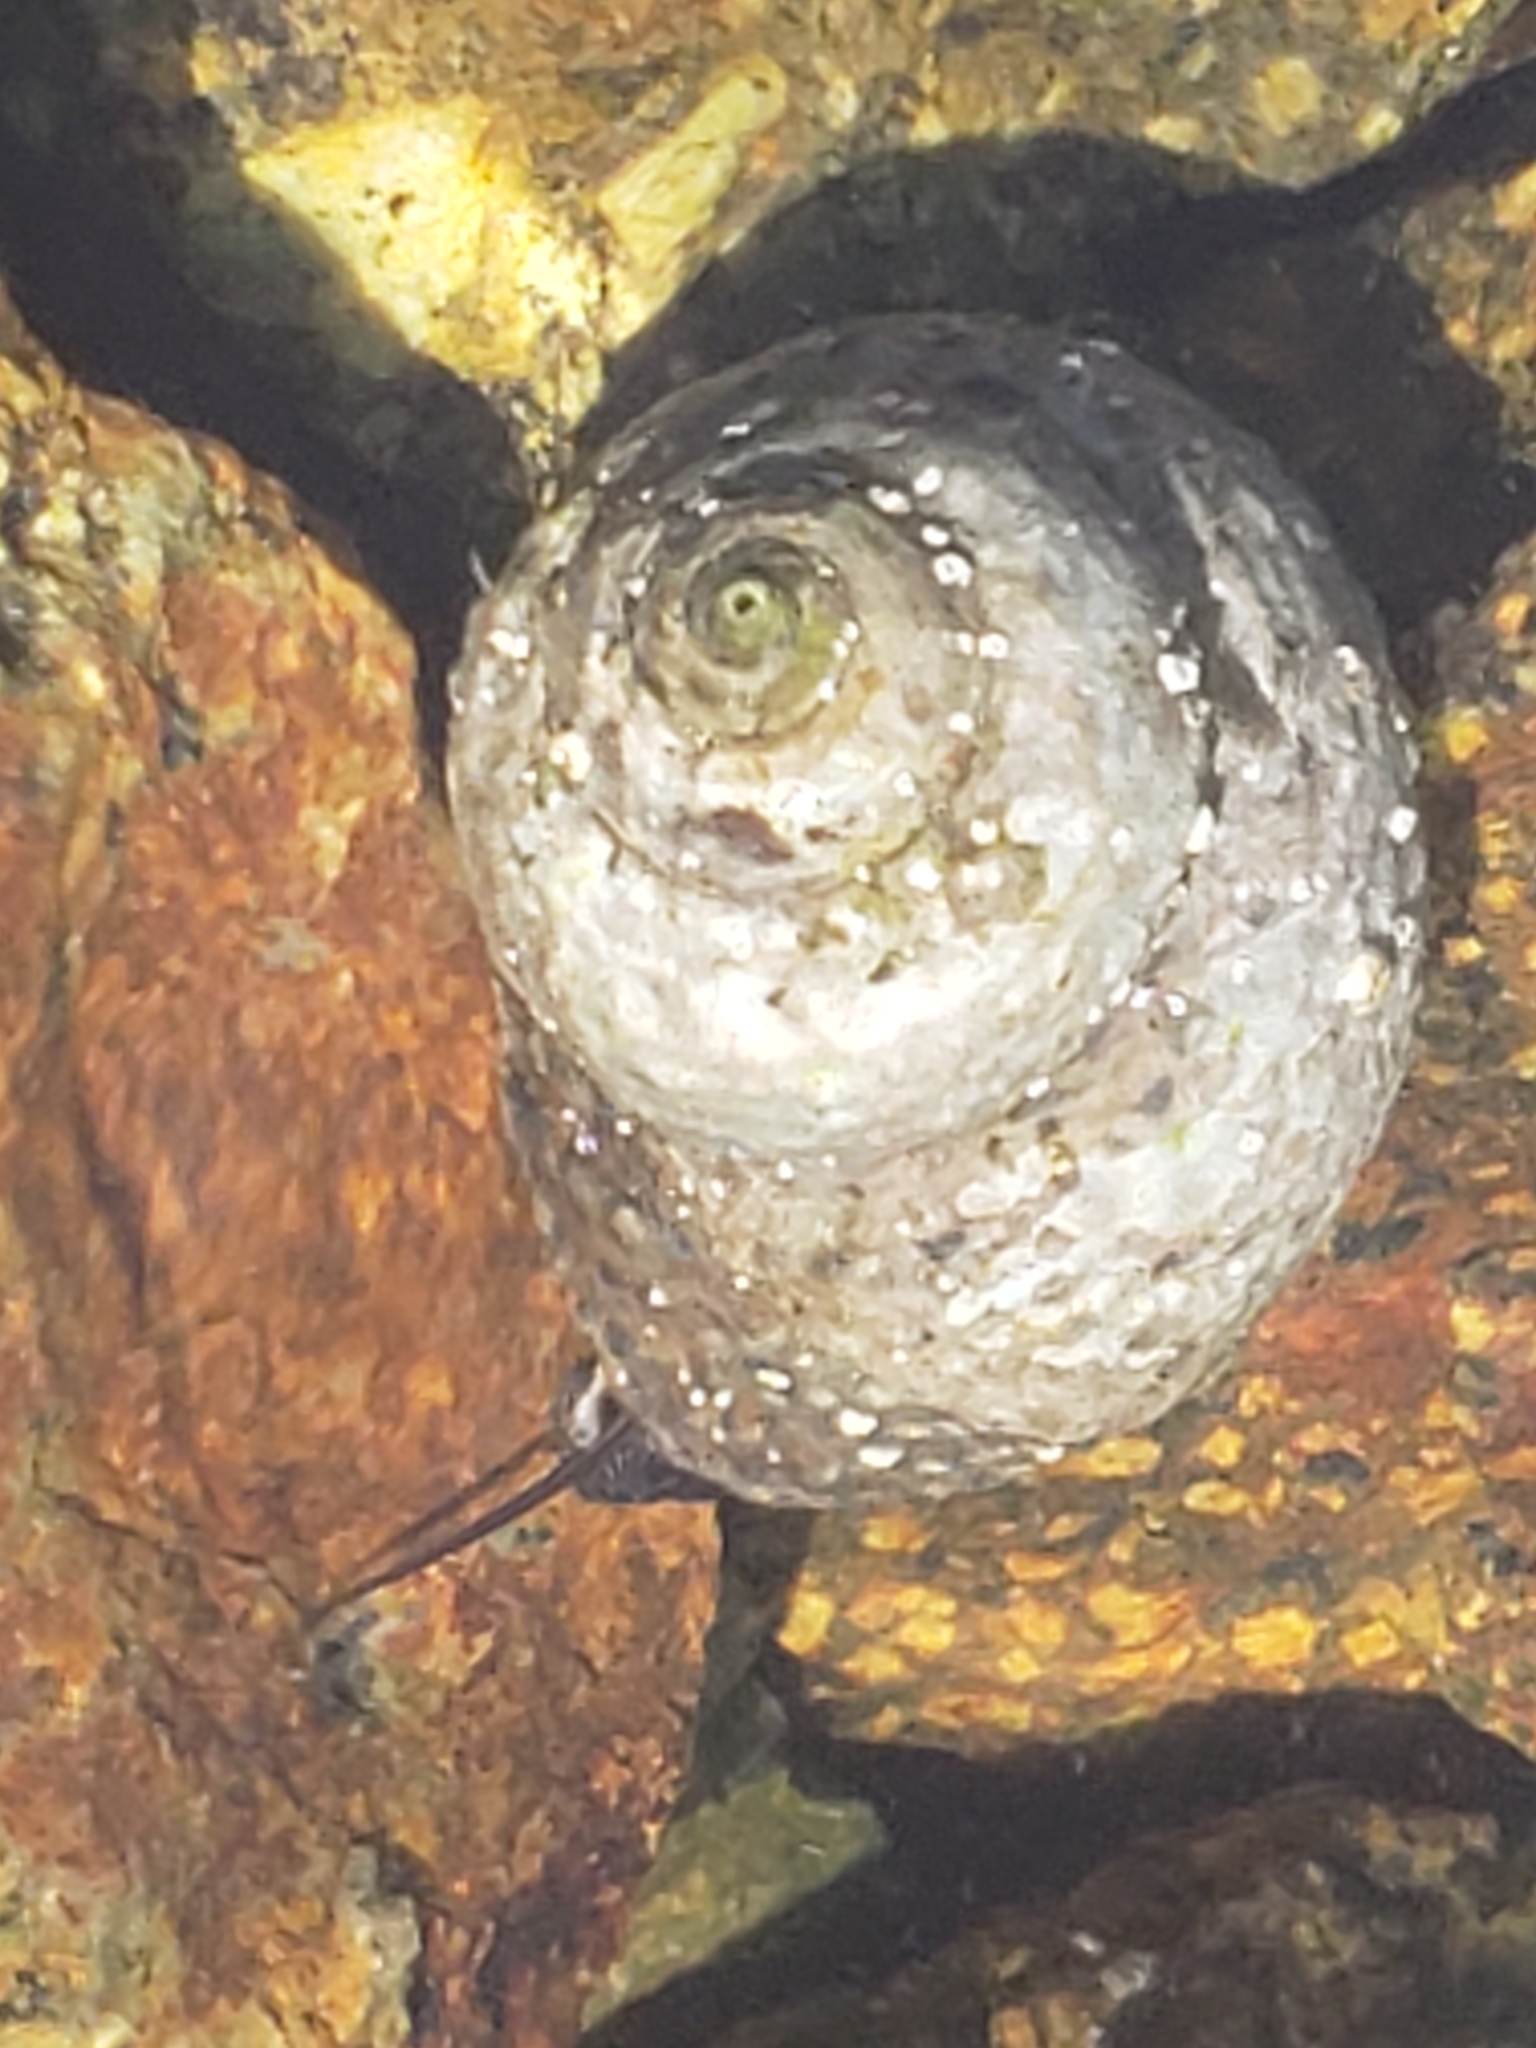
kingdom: Animalia
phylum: Mollusca
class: Gastropoda
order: Trochida
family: Tegulidae
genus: Tegula
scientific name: Tegula eiseni
